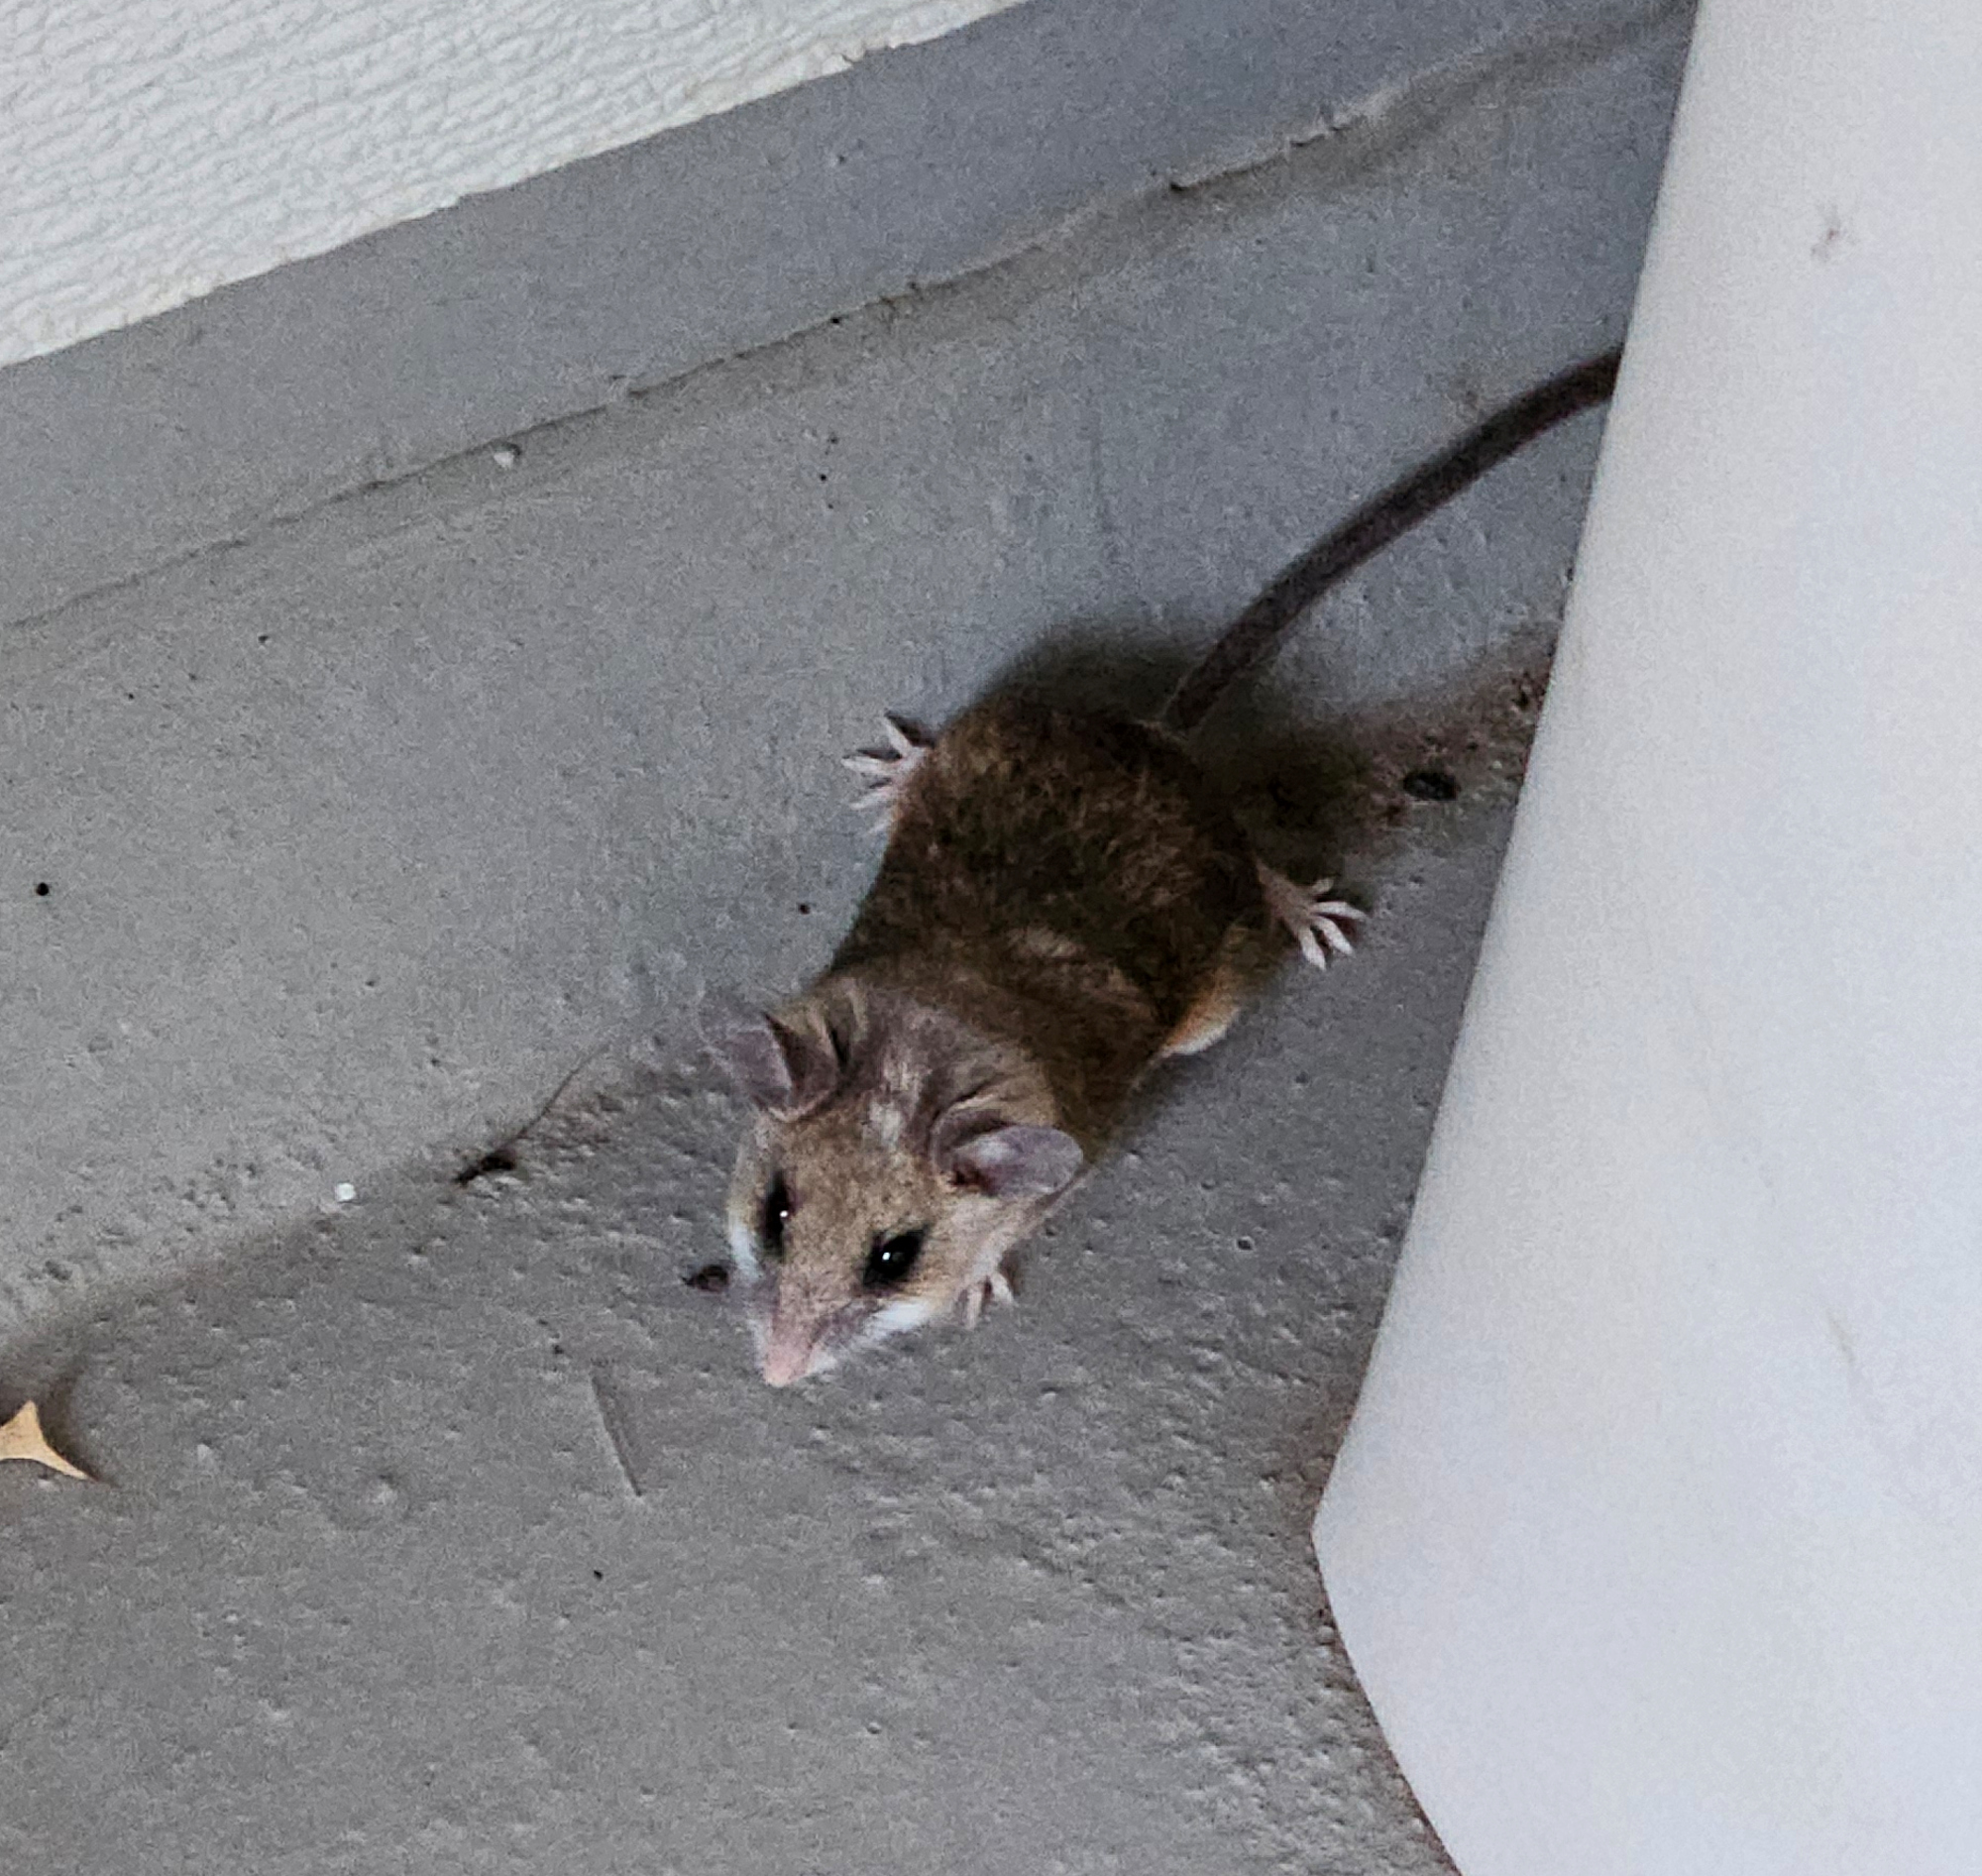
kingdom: Animalia
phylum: Chordata
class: Mammalia
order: Rodentia
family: Cricetidae
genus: Peromyscus
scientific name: Peromyscus maniculatus
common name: Deer mouse
